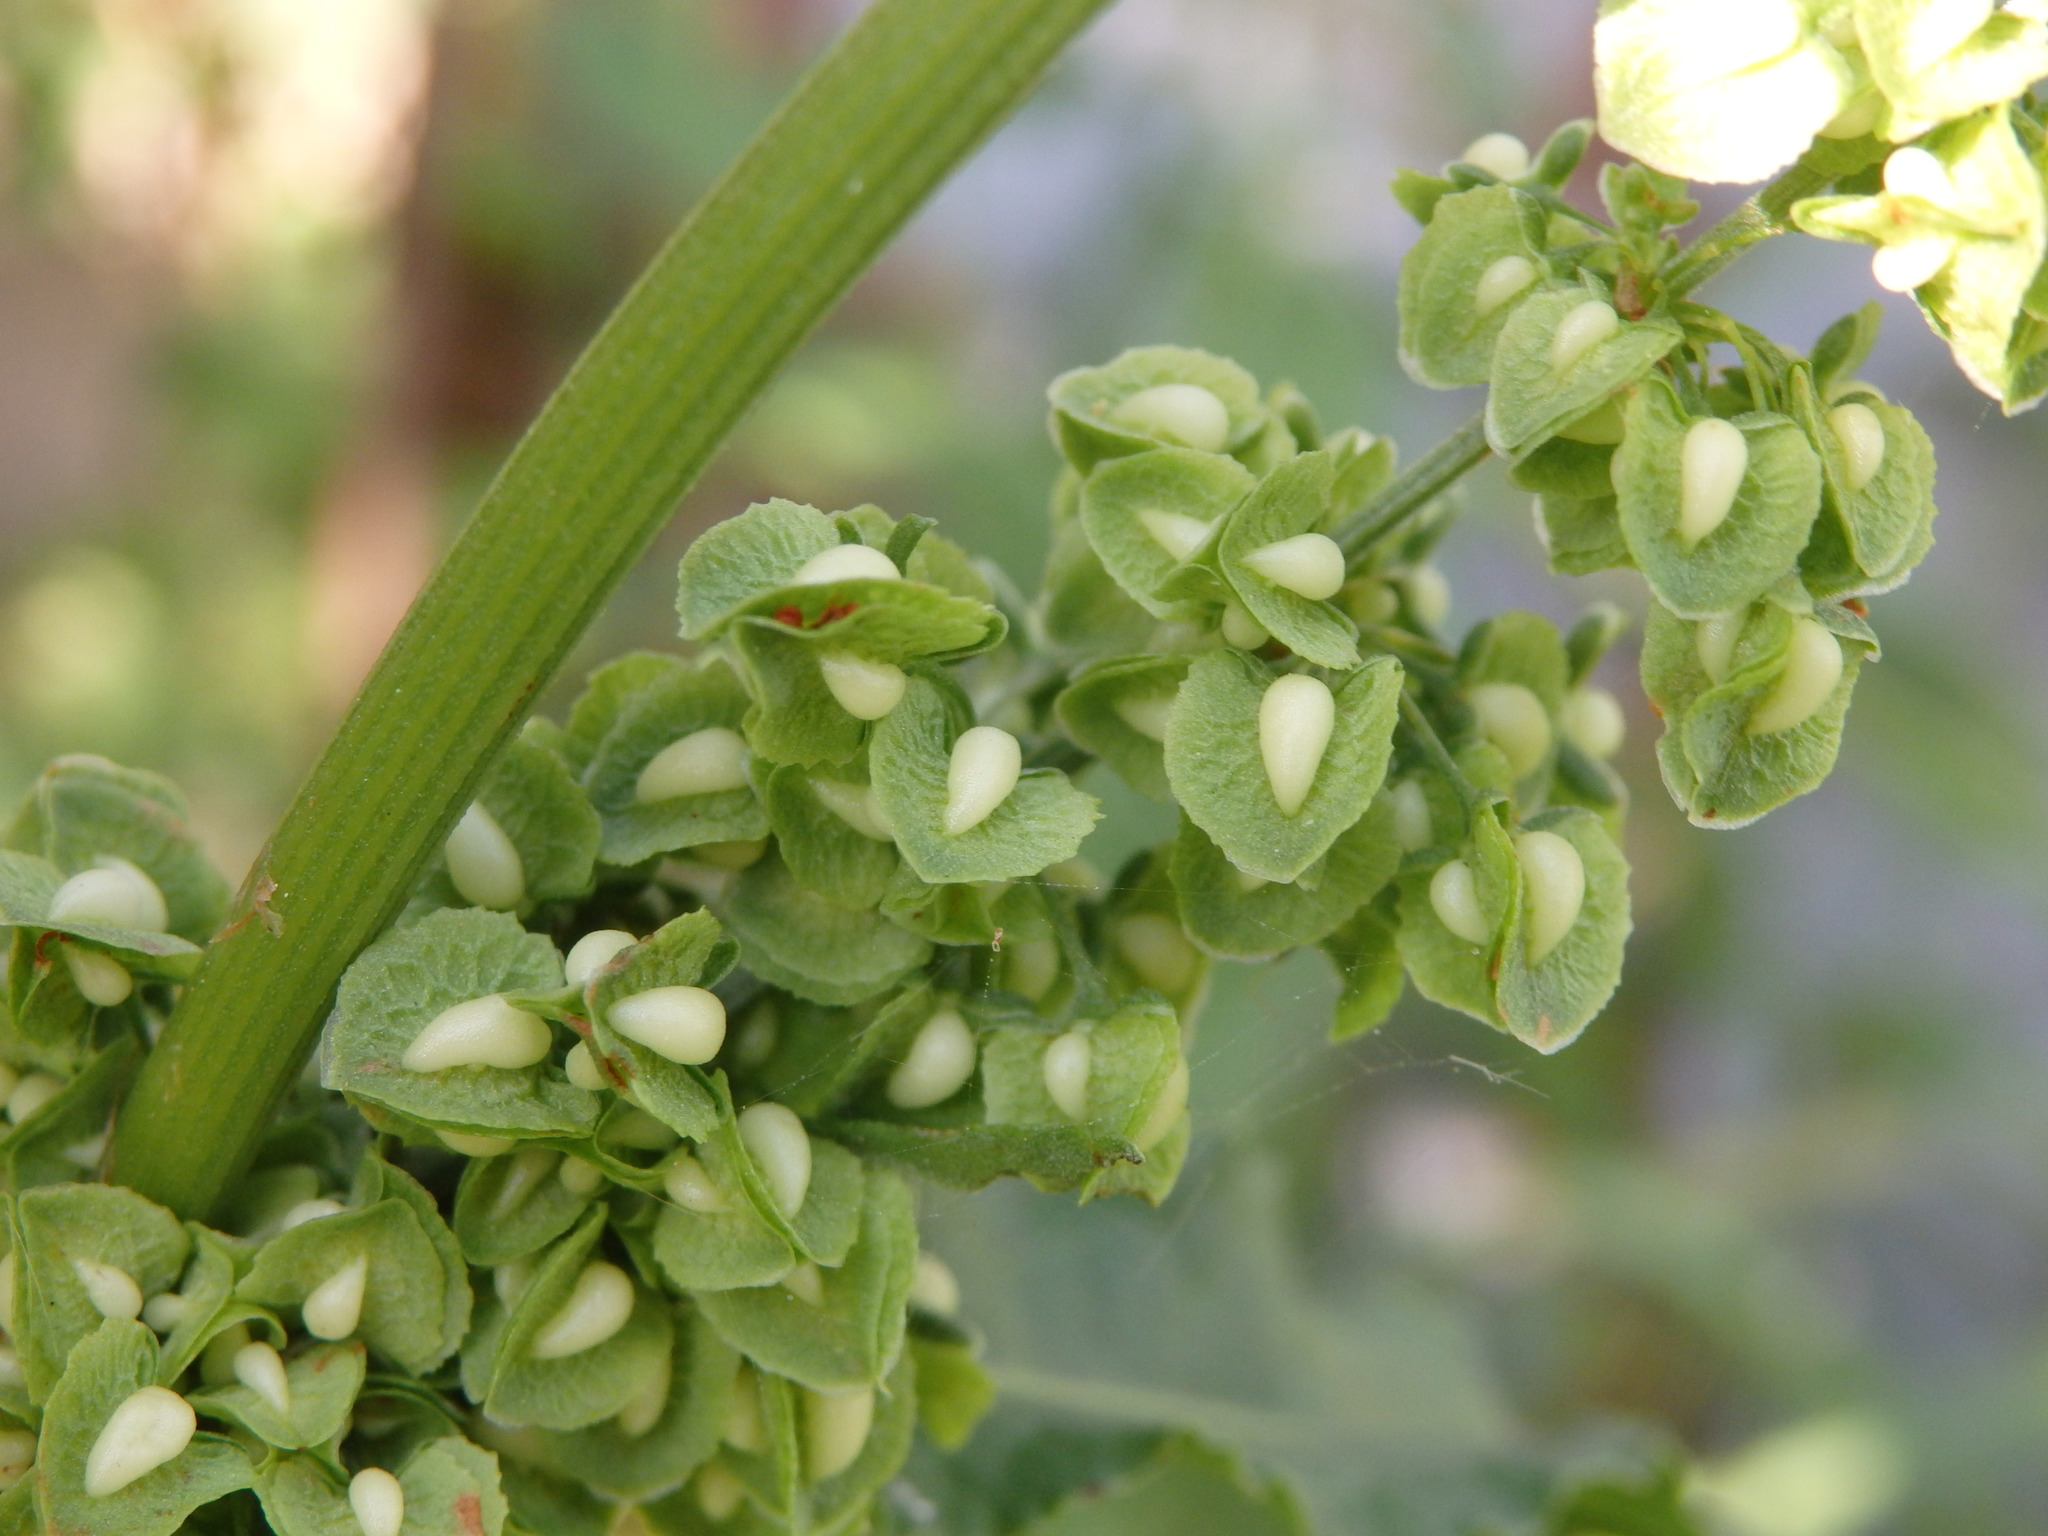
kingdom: Plantae
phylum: Tracheophyta
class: Magnoliopsida
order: Caryophyllales
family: Polygonaceae
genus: Rumex
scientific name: Rumex crispus
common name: Curled dock
